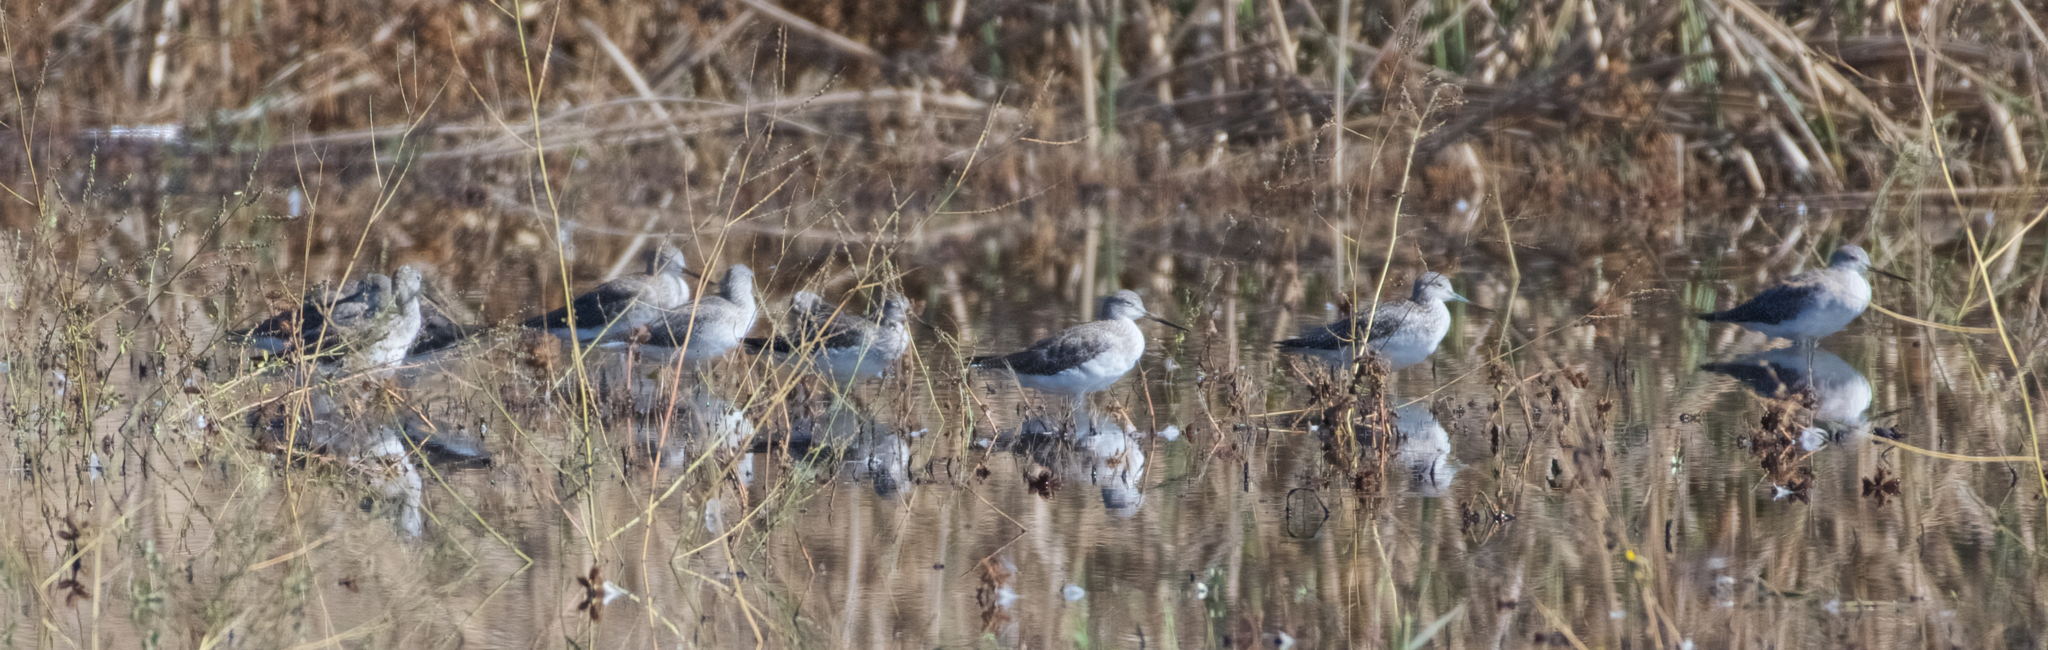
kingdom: Animalia
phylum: Chordata
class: Aves
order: Charadriiformes
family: Scolopacidae
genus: Tringa
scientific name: Tringa melanoleuca
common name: Greater yellowlegs
